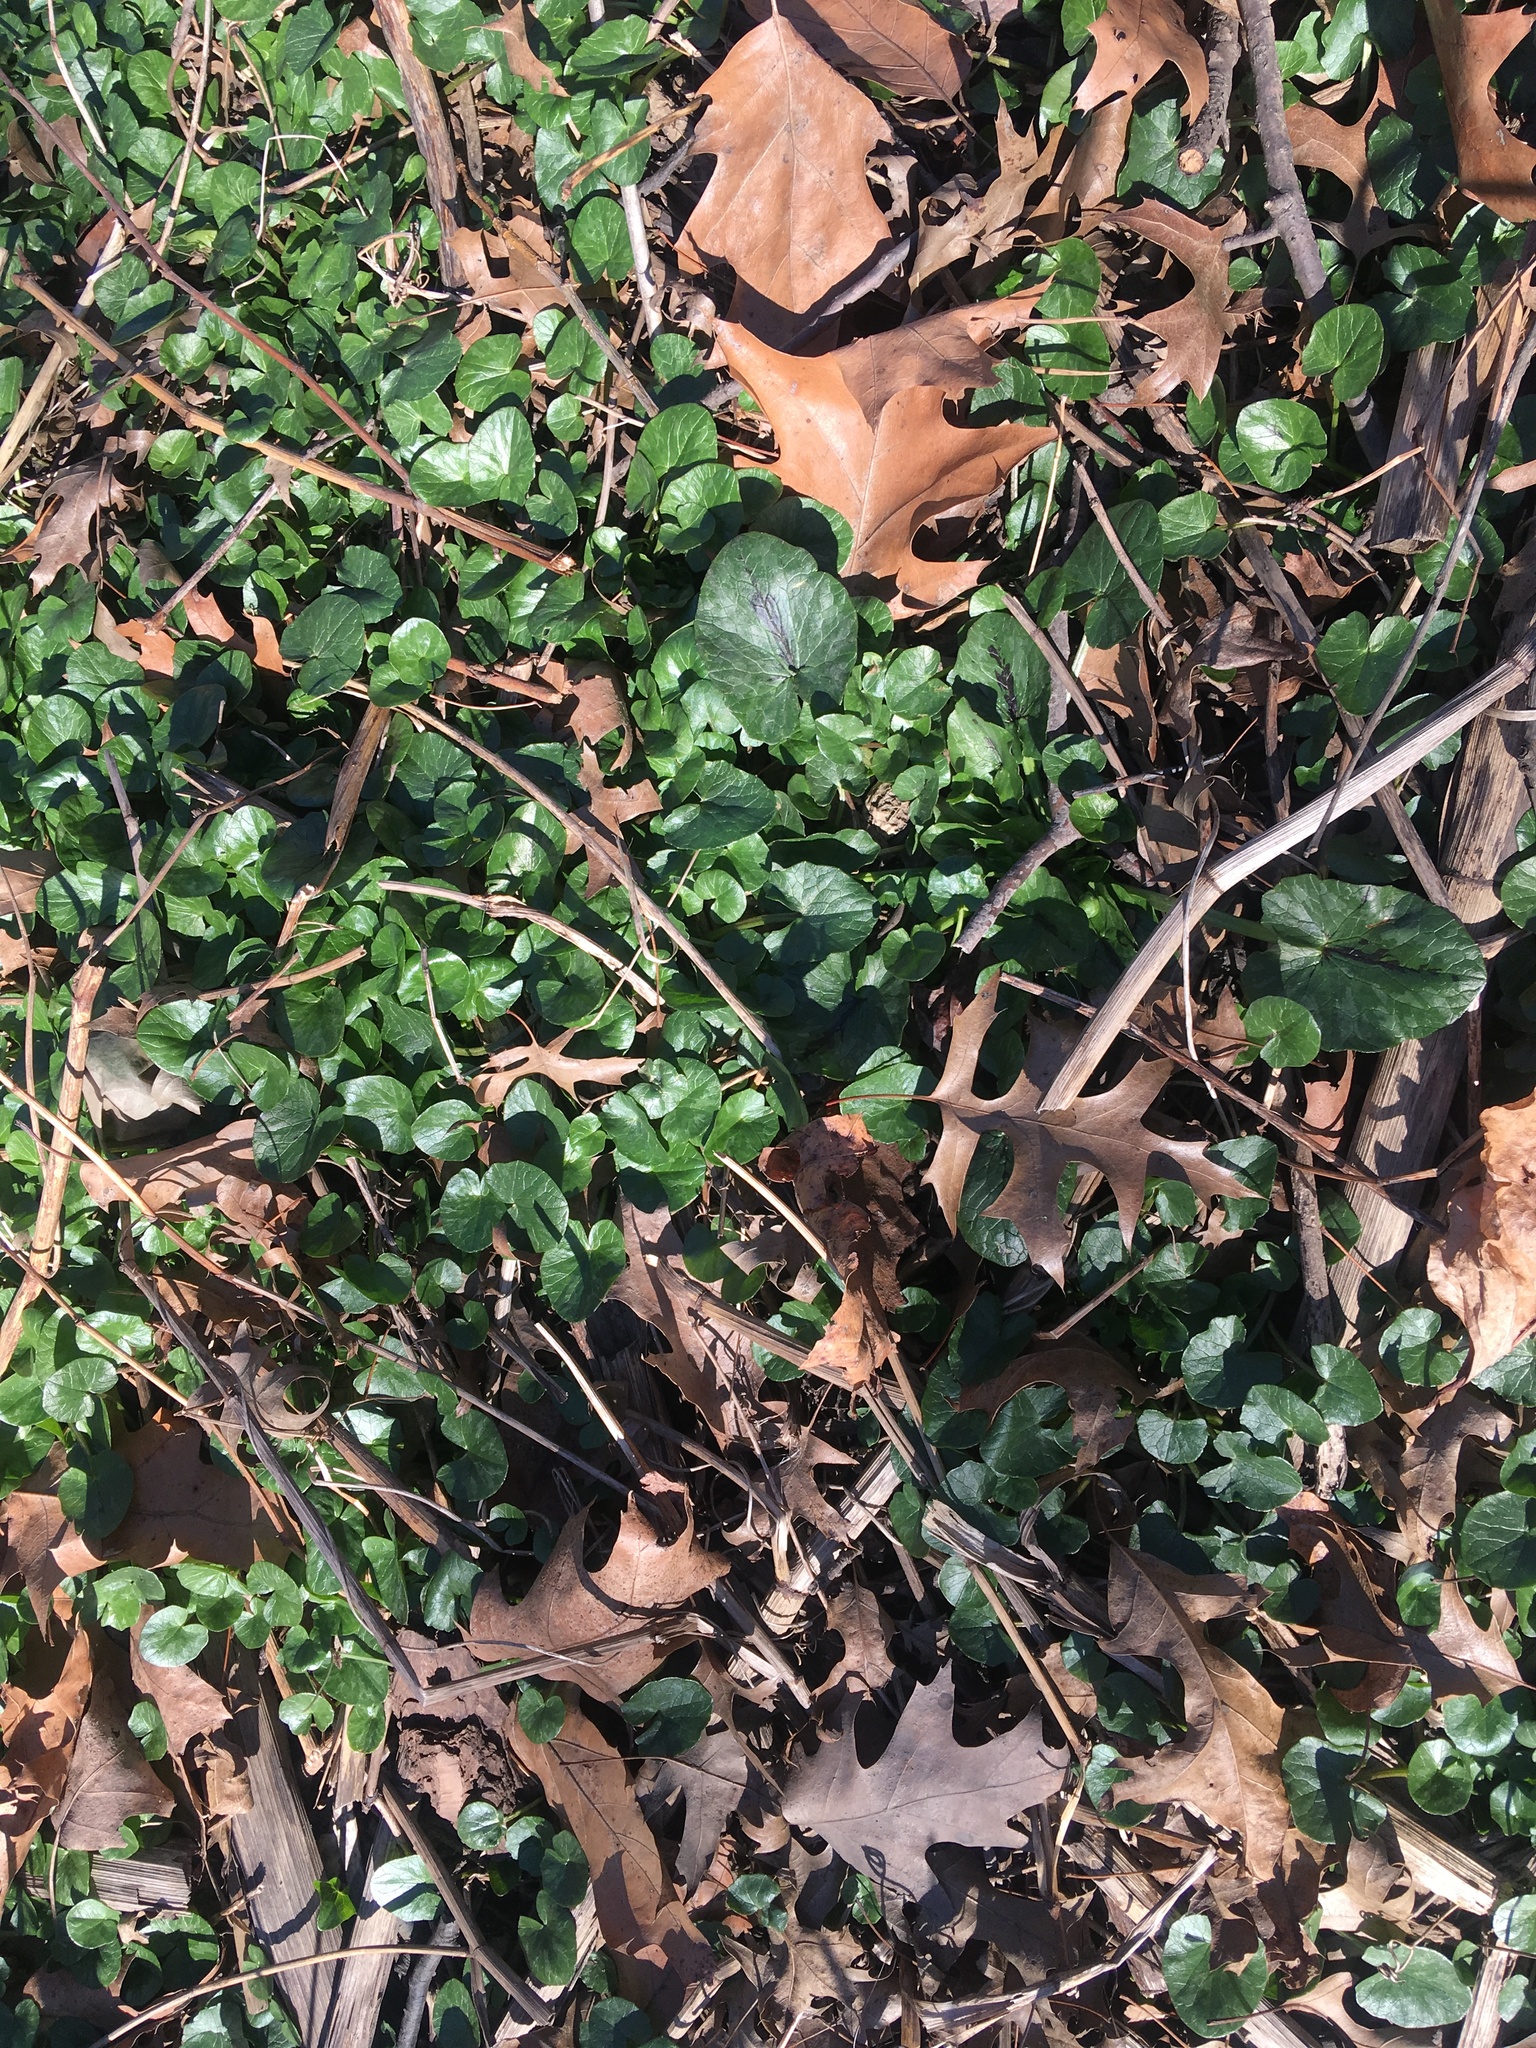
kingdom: Plantae
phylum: Tracheophyta
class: Magnoliopsida
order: Ranunculales
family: Ranunculaceae
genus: Ficaria
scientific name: Ficaria verna
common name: Lesser celandine
